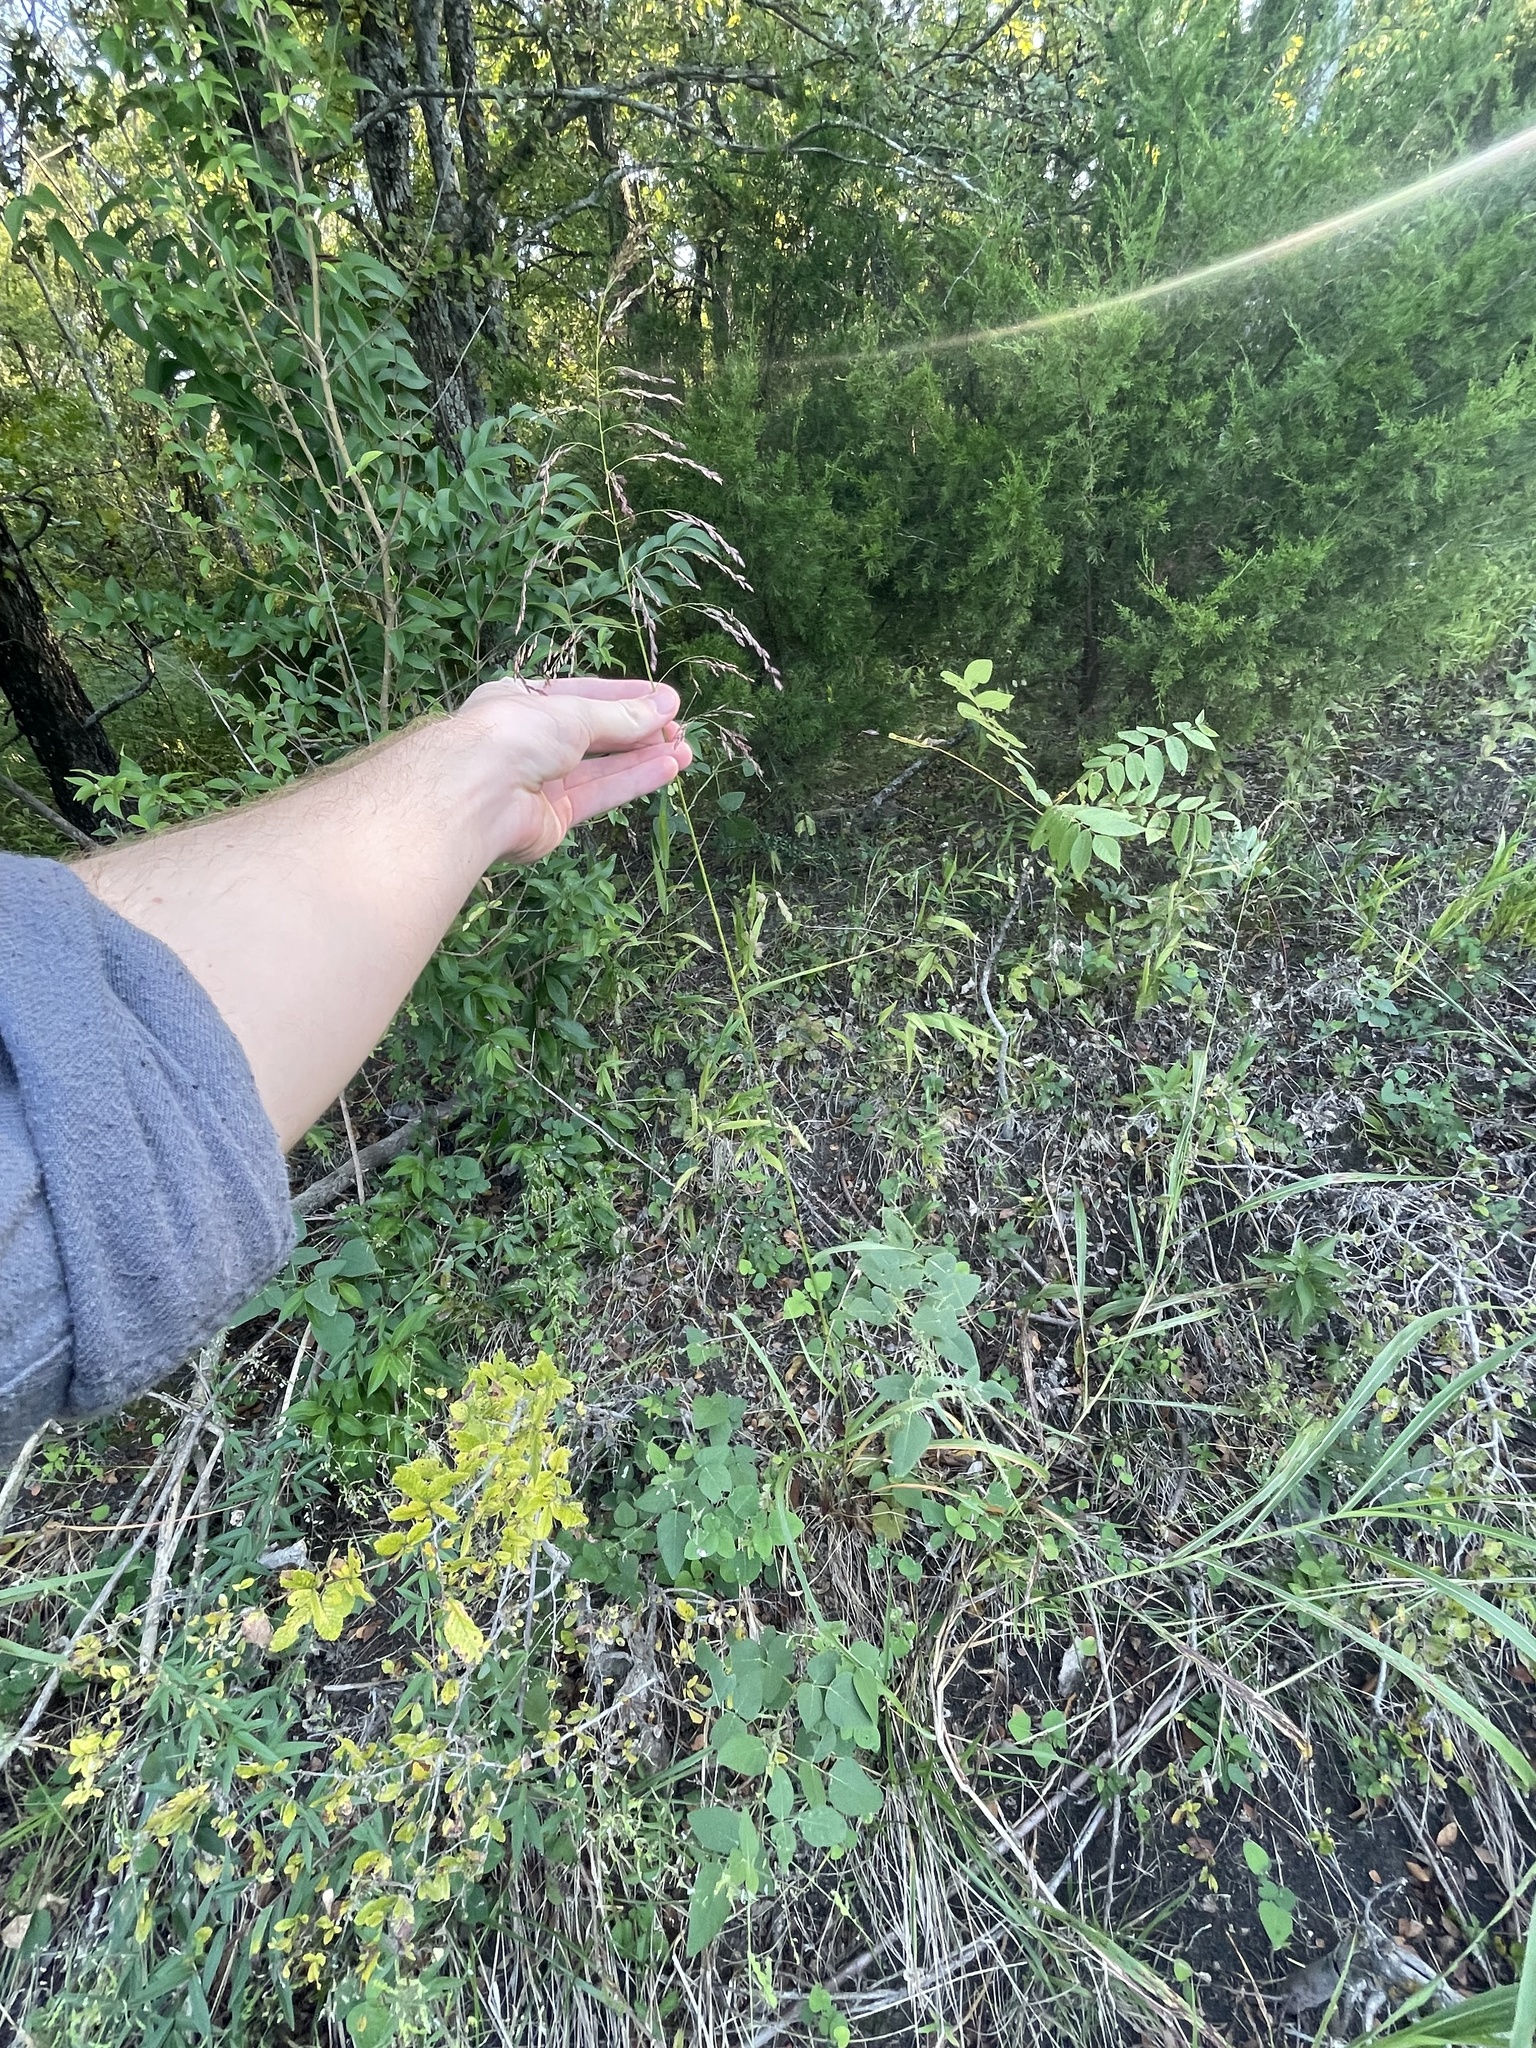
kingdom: Plantae
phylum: Tracheophyta
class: Liliopsida
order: Poales
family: Poaceae
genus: Tridens
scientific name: Tridens flavus
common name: Purpletop
